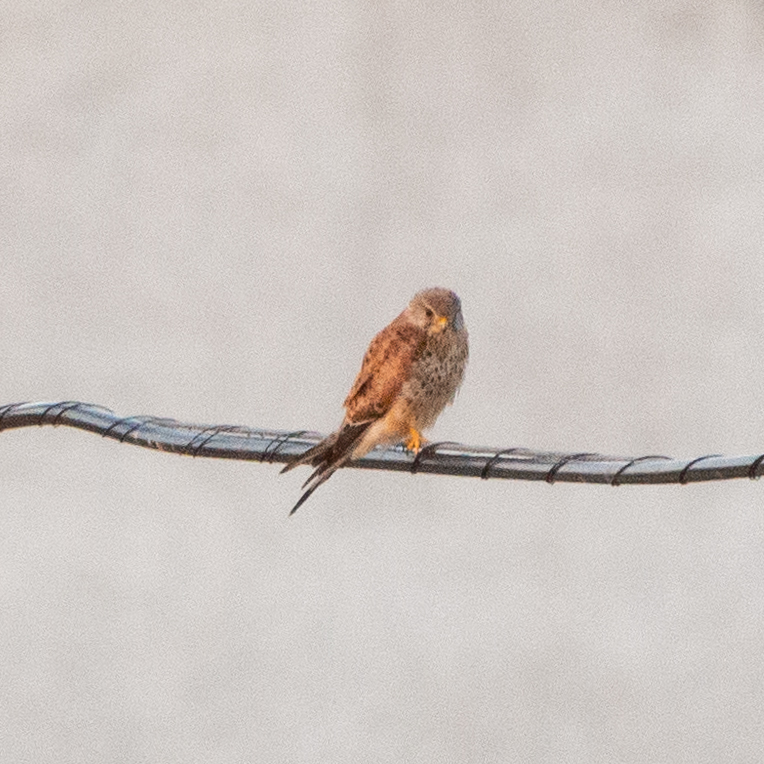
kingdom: Animalia
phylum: Chordata
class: Aves
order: Falconiformes
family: Falconidae
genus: Falco
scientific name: Falco tinnunculus
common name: Common kestrel
